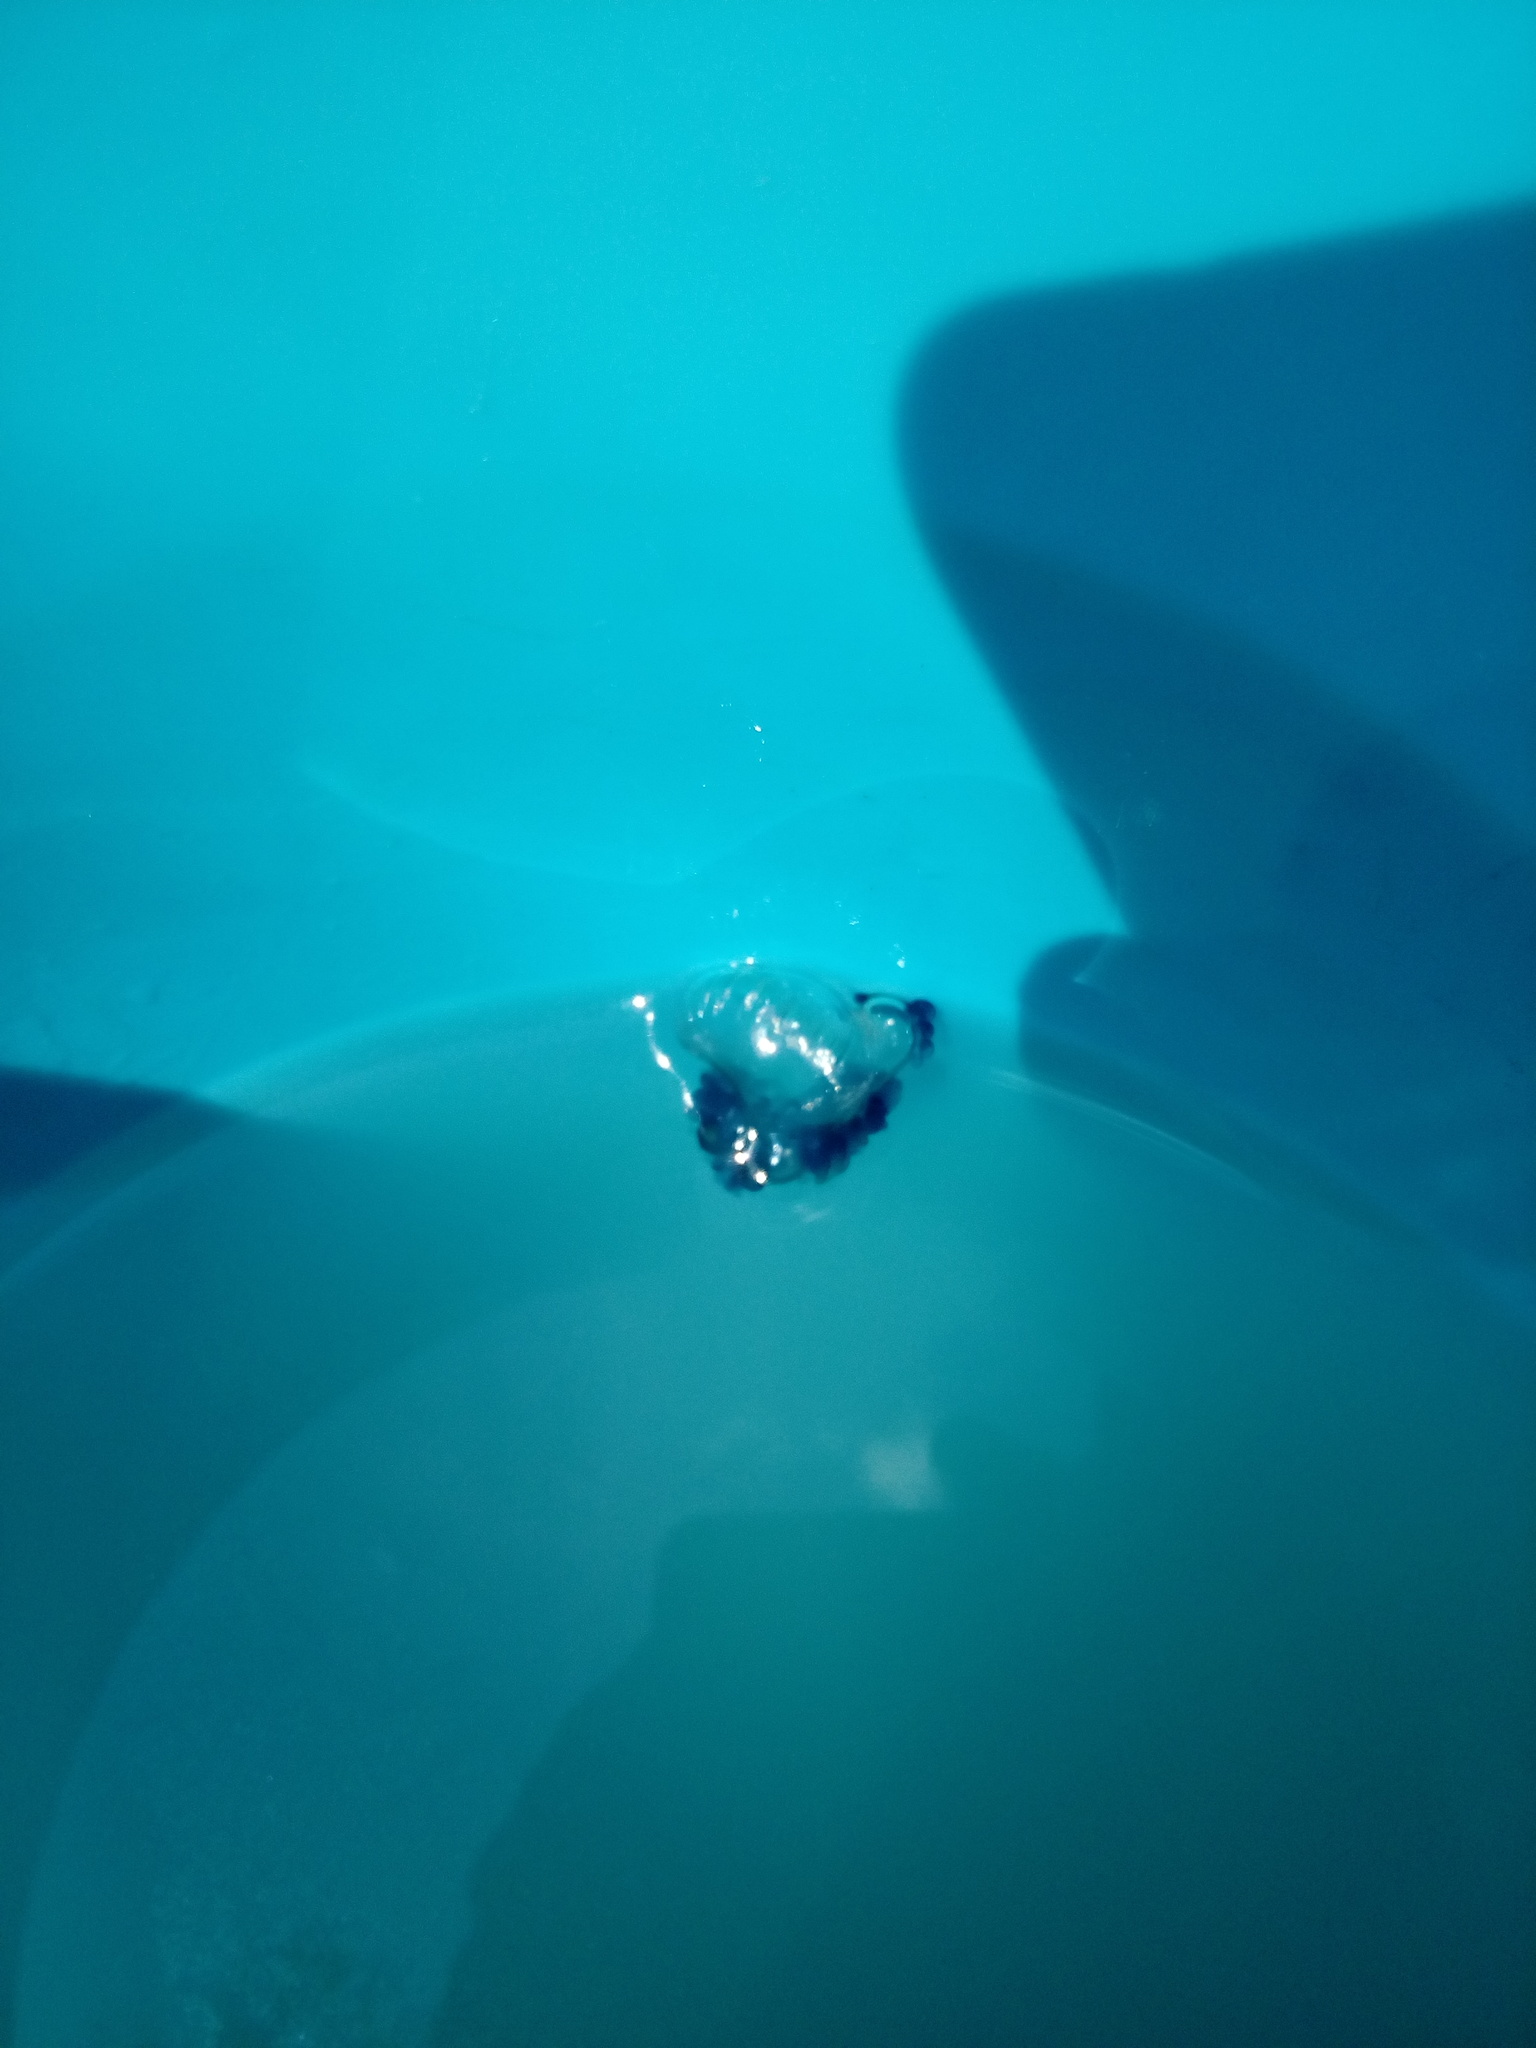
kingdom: Animalia
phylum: Cnidaria
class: Hydrozoa
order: Siphonophorae
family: Physaliidae
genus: Physalia
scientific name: Physalia physalis
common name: Portuguese man-of-war
